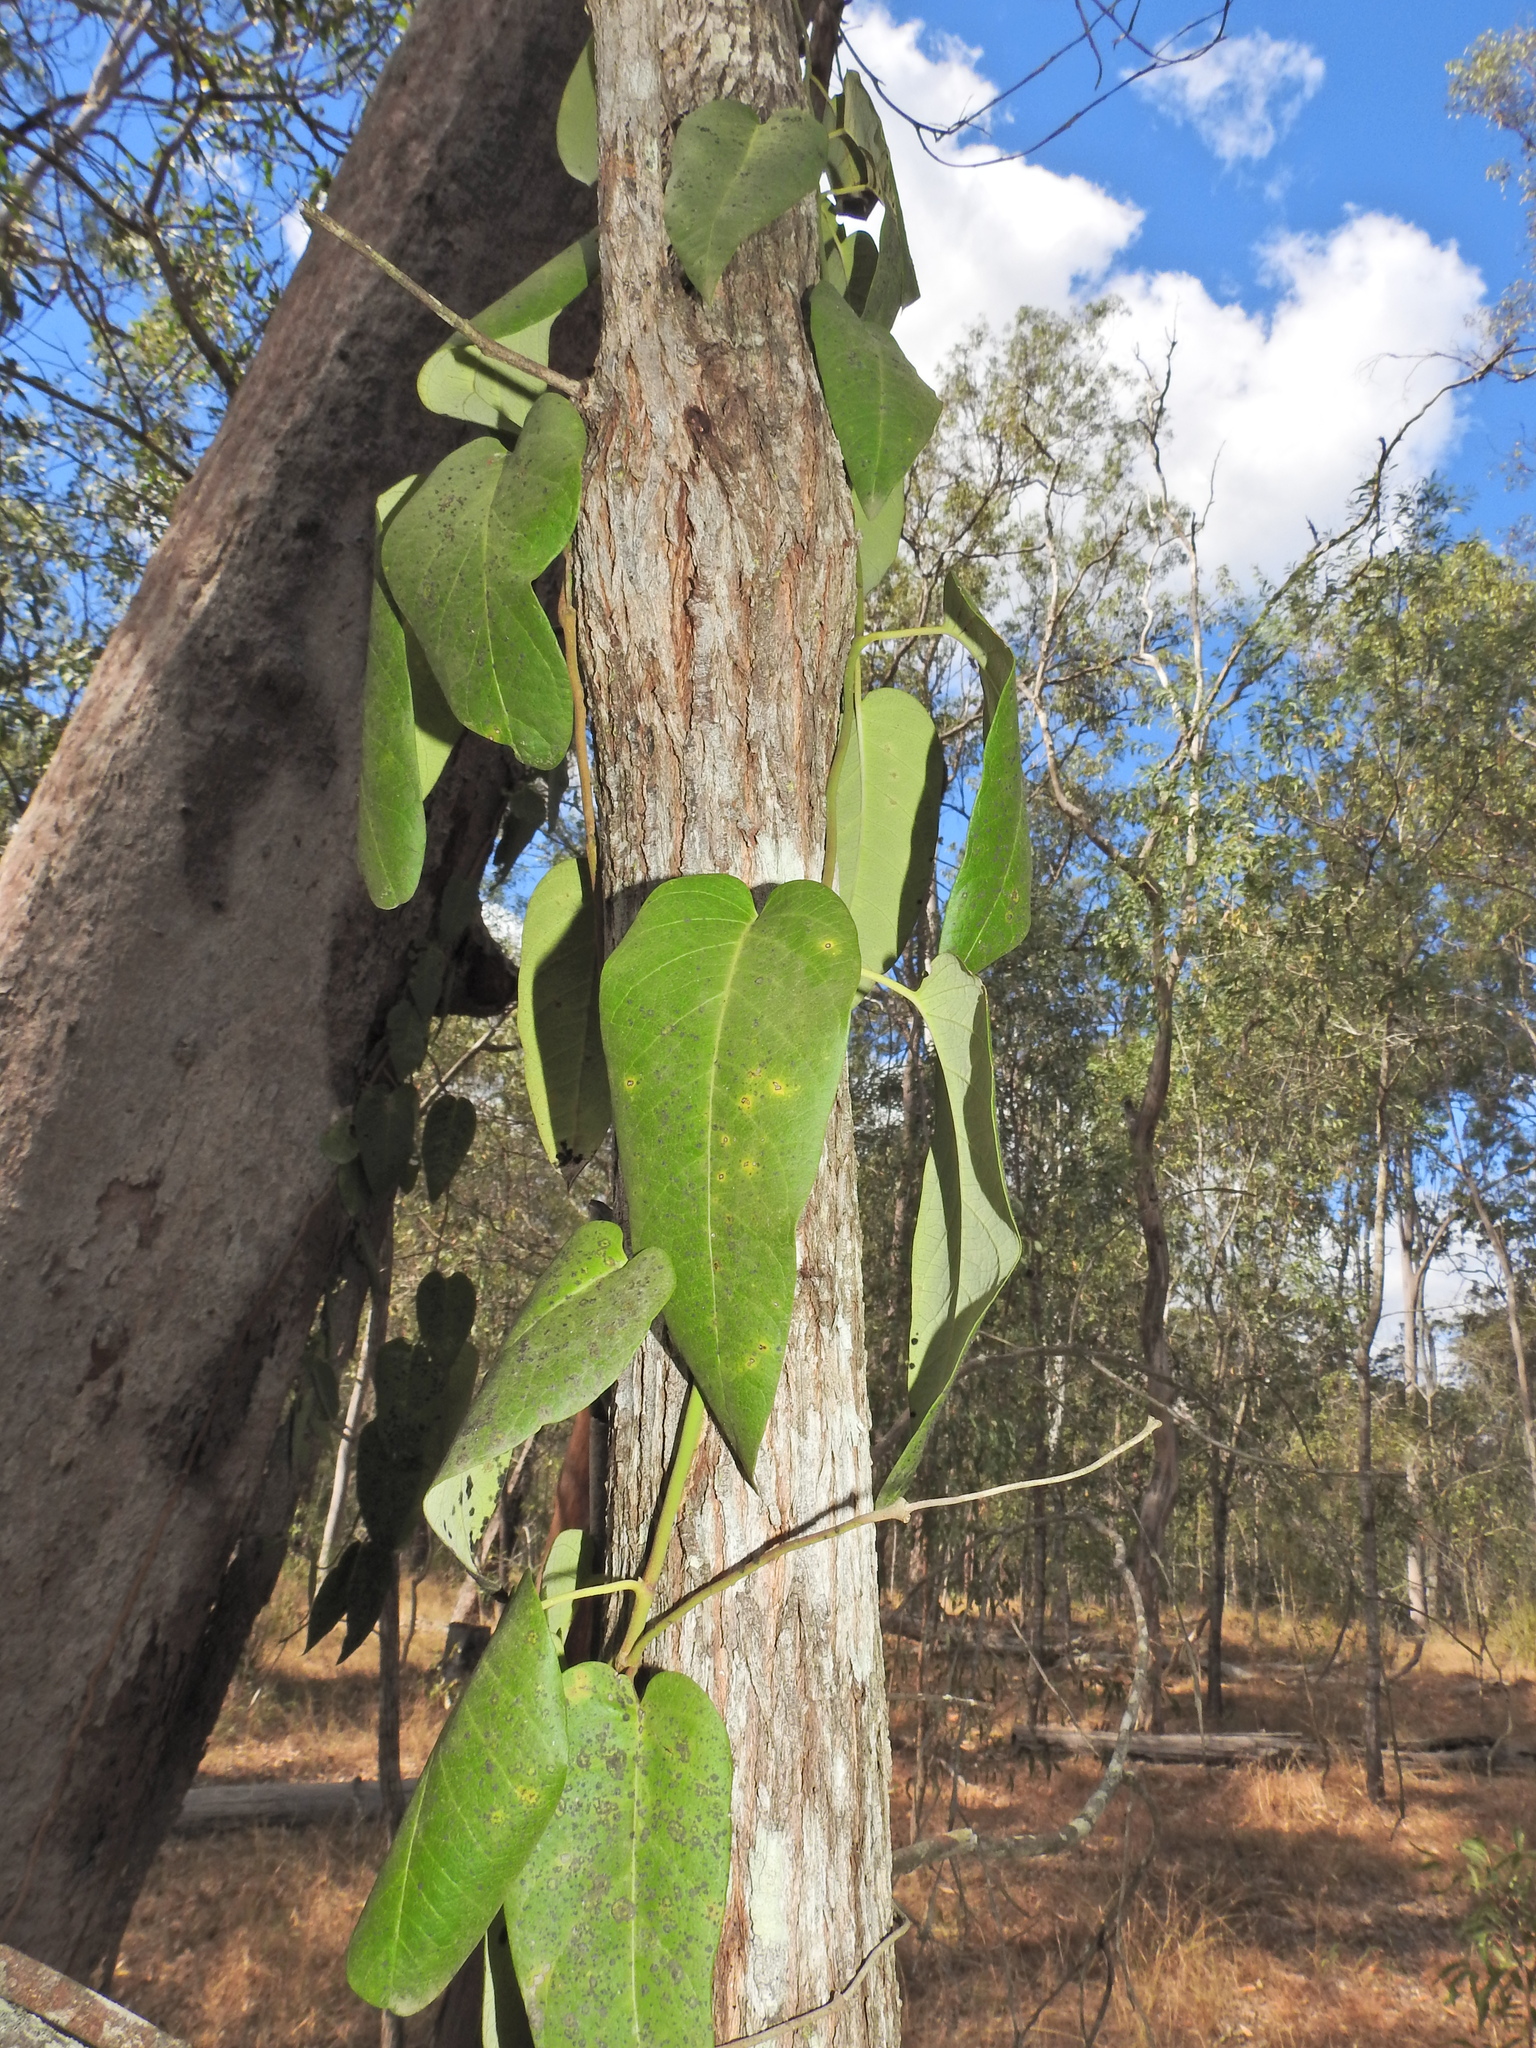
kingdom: Plantae
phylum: Tracheophyta
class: Magnoliopsida
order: Gentianales
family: Apocynaceae
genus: Parsonsia
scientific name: Parsonsia brisbanensis
